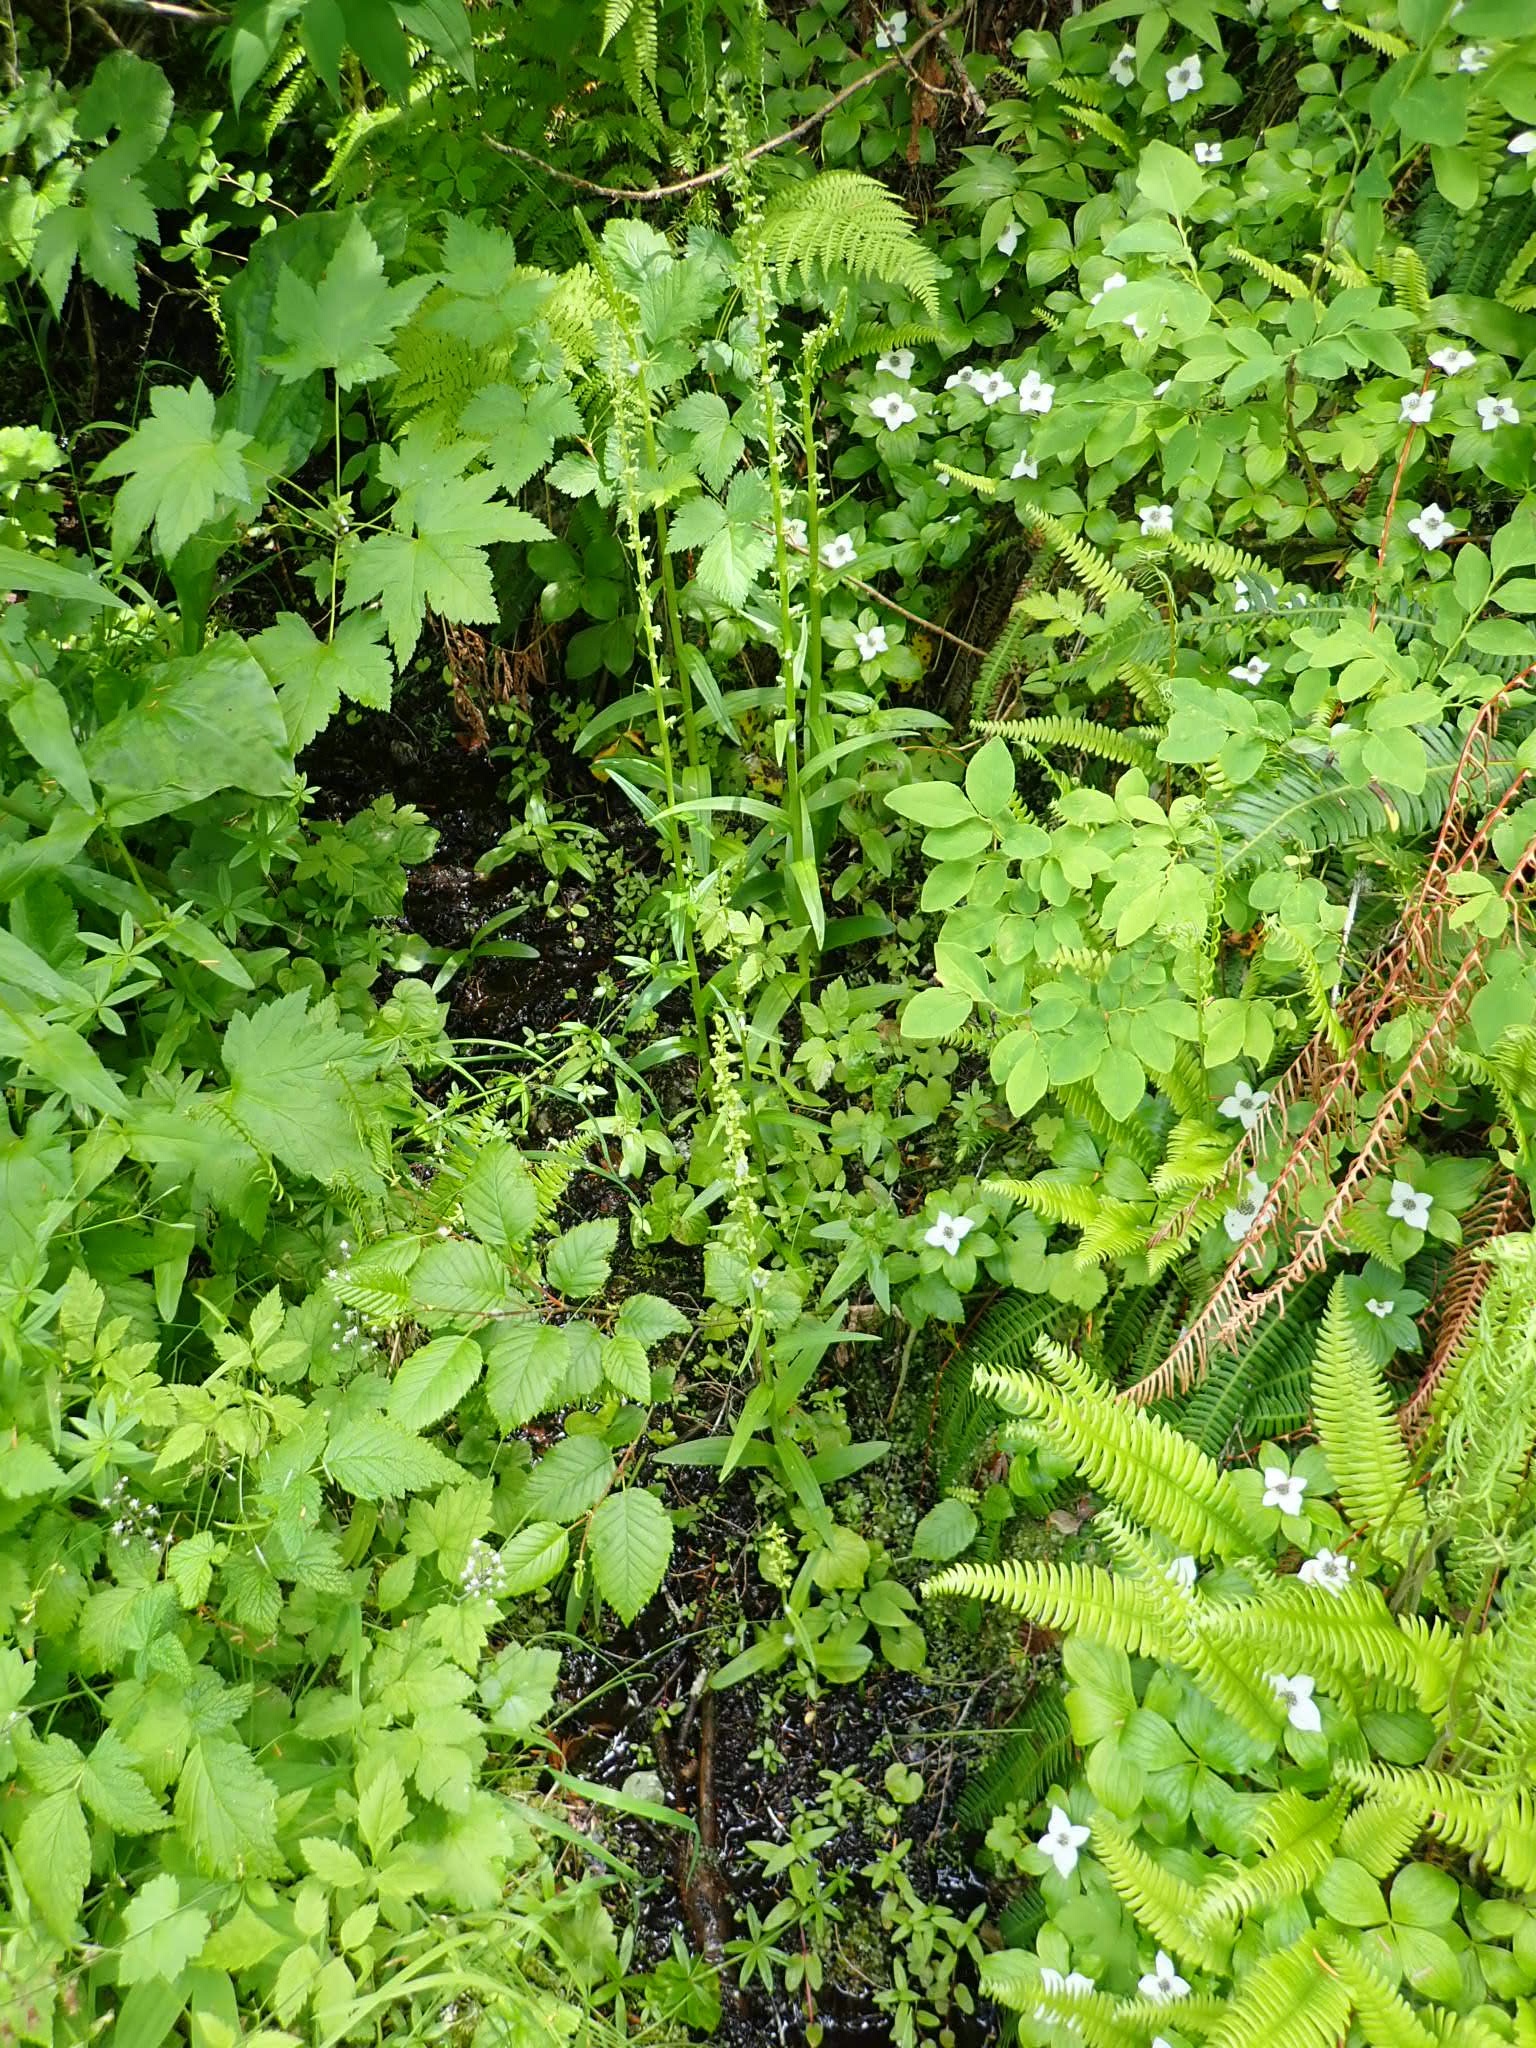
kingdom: Plantae
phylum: Tracheophyta
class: Liliopsida
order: Asparagales
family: Orchidaceae
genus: Platanthera
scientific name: Platanthera stricta
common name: Slender bog orchid
